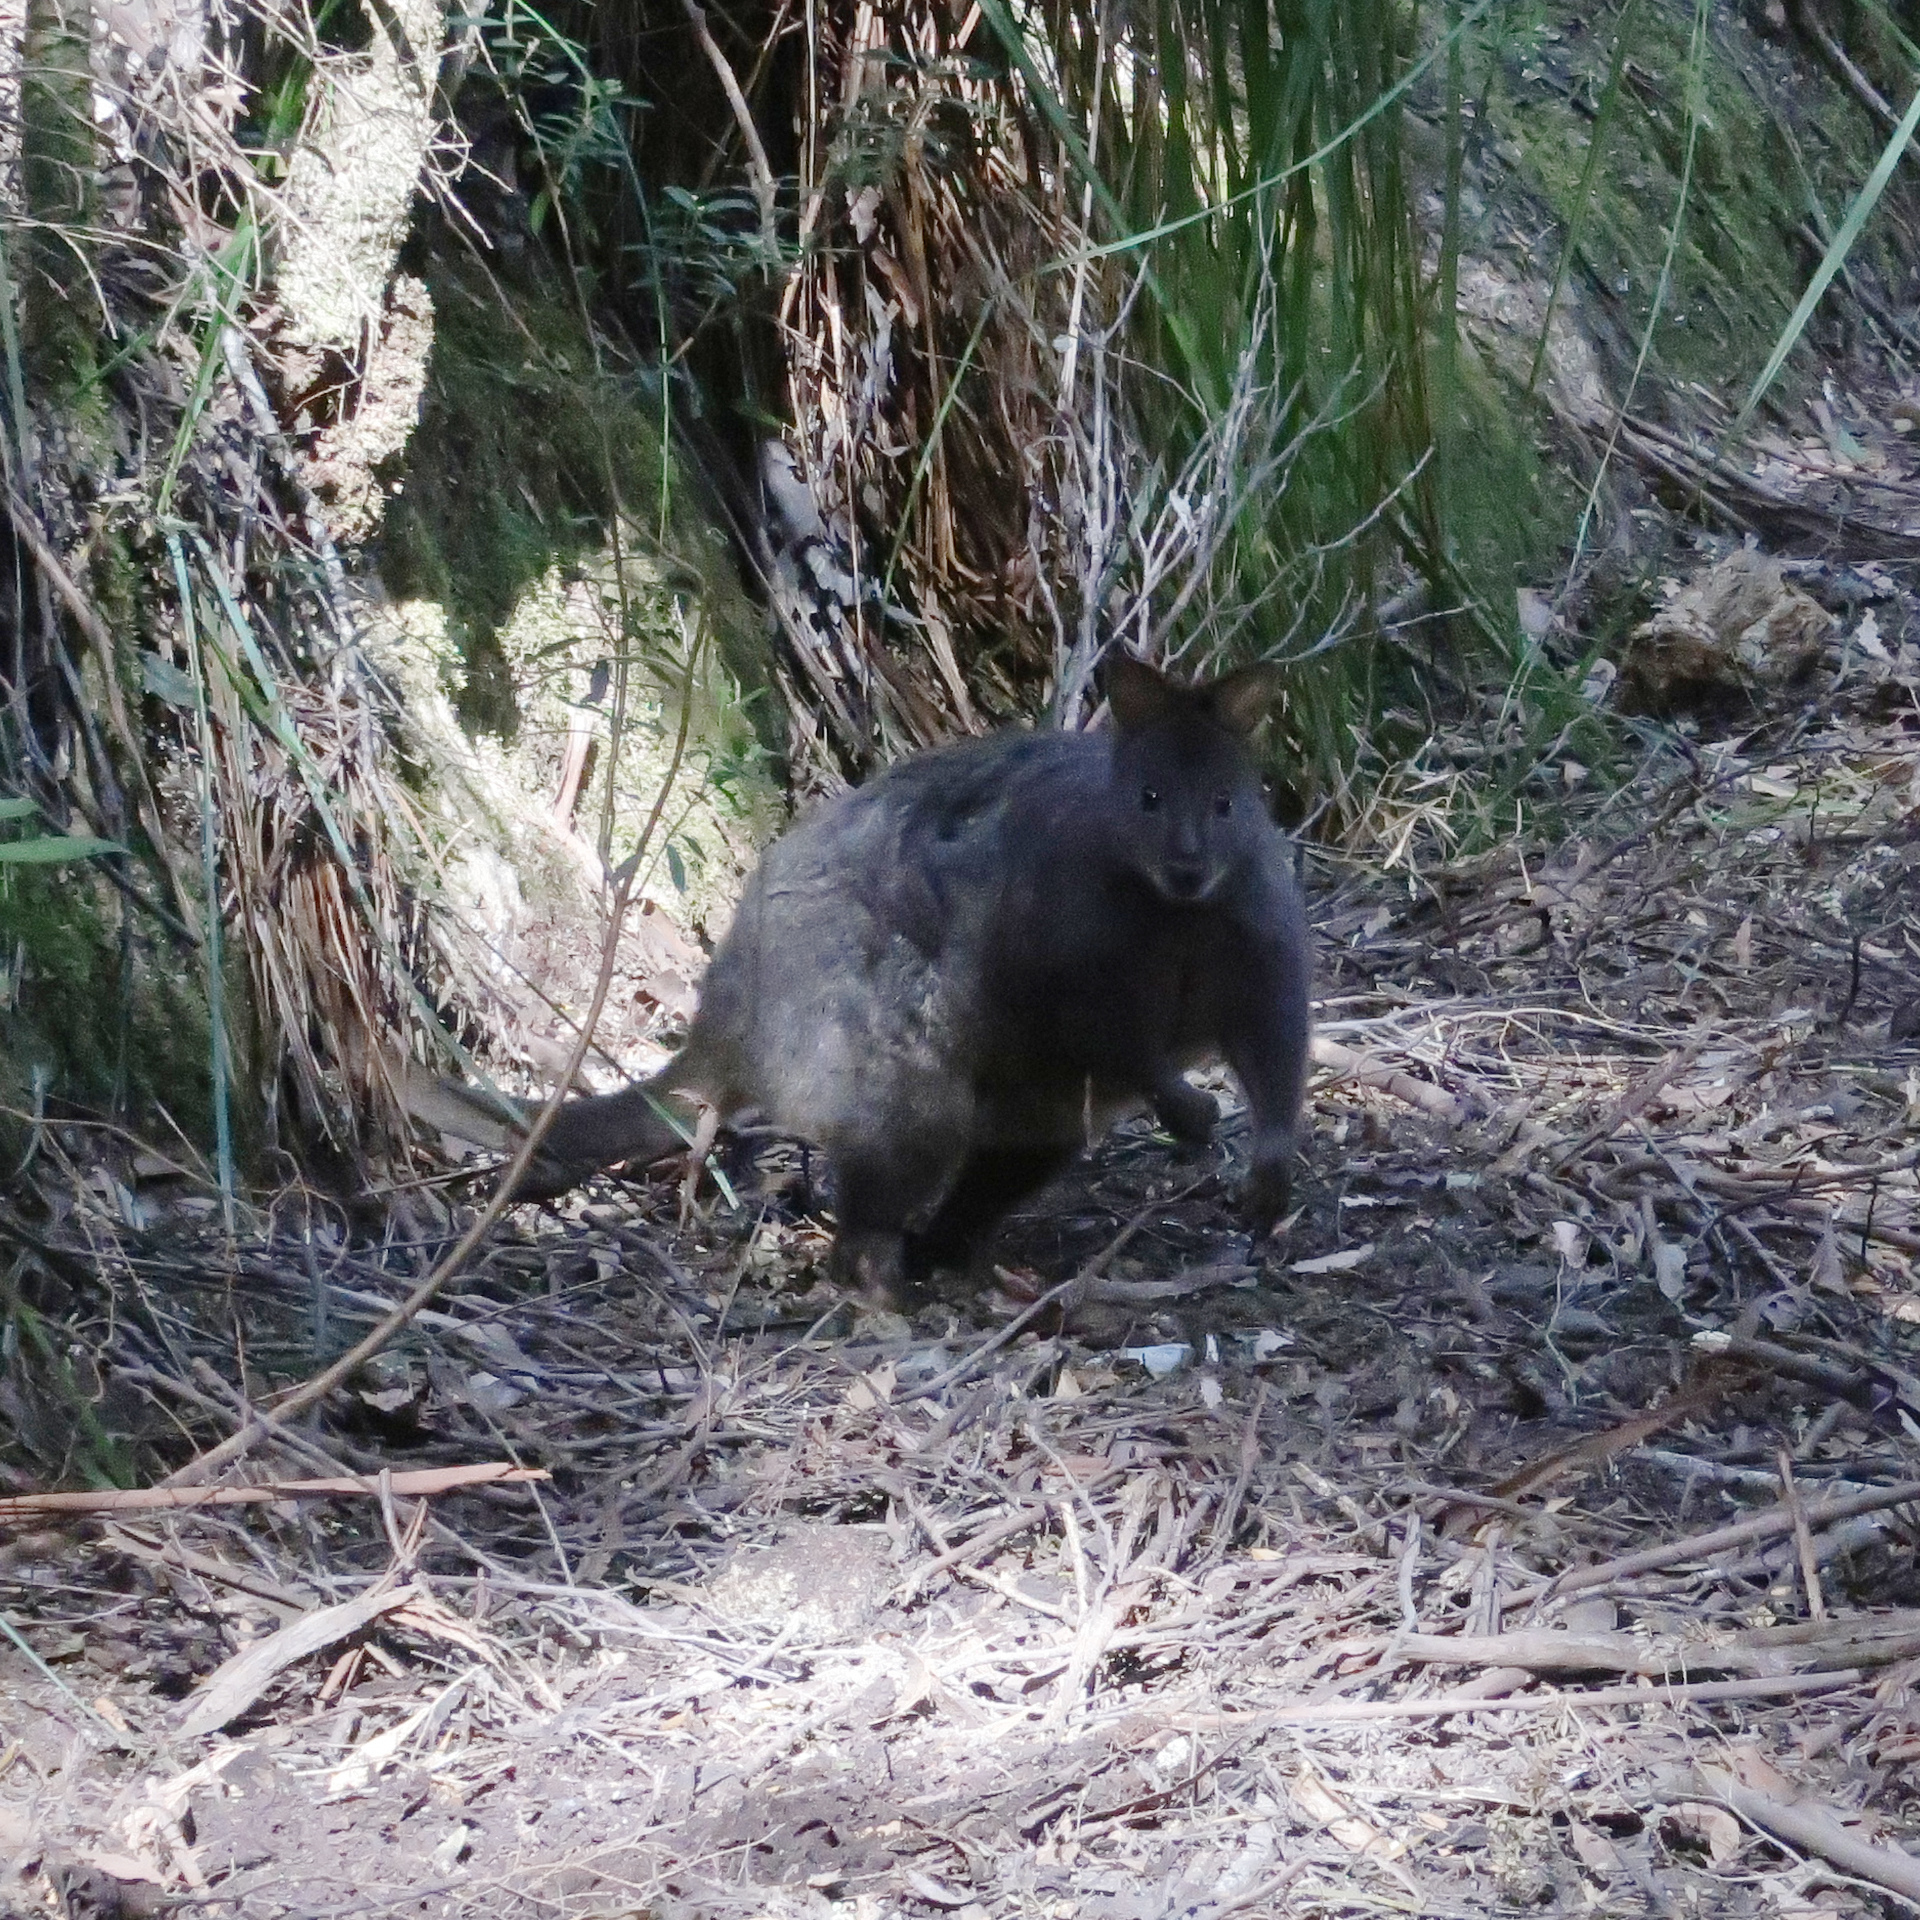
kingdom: Animalia
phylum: Chordata
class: Mammalia
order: Diprotodontia
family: Macropodidae
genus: Thylogale
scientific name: Thylogale billardierii
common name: Tasmanian pademelon
